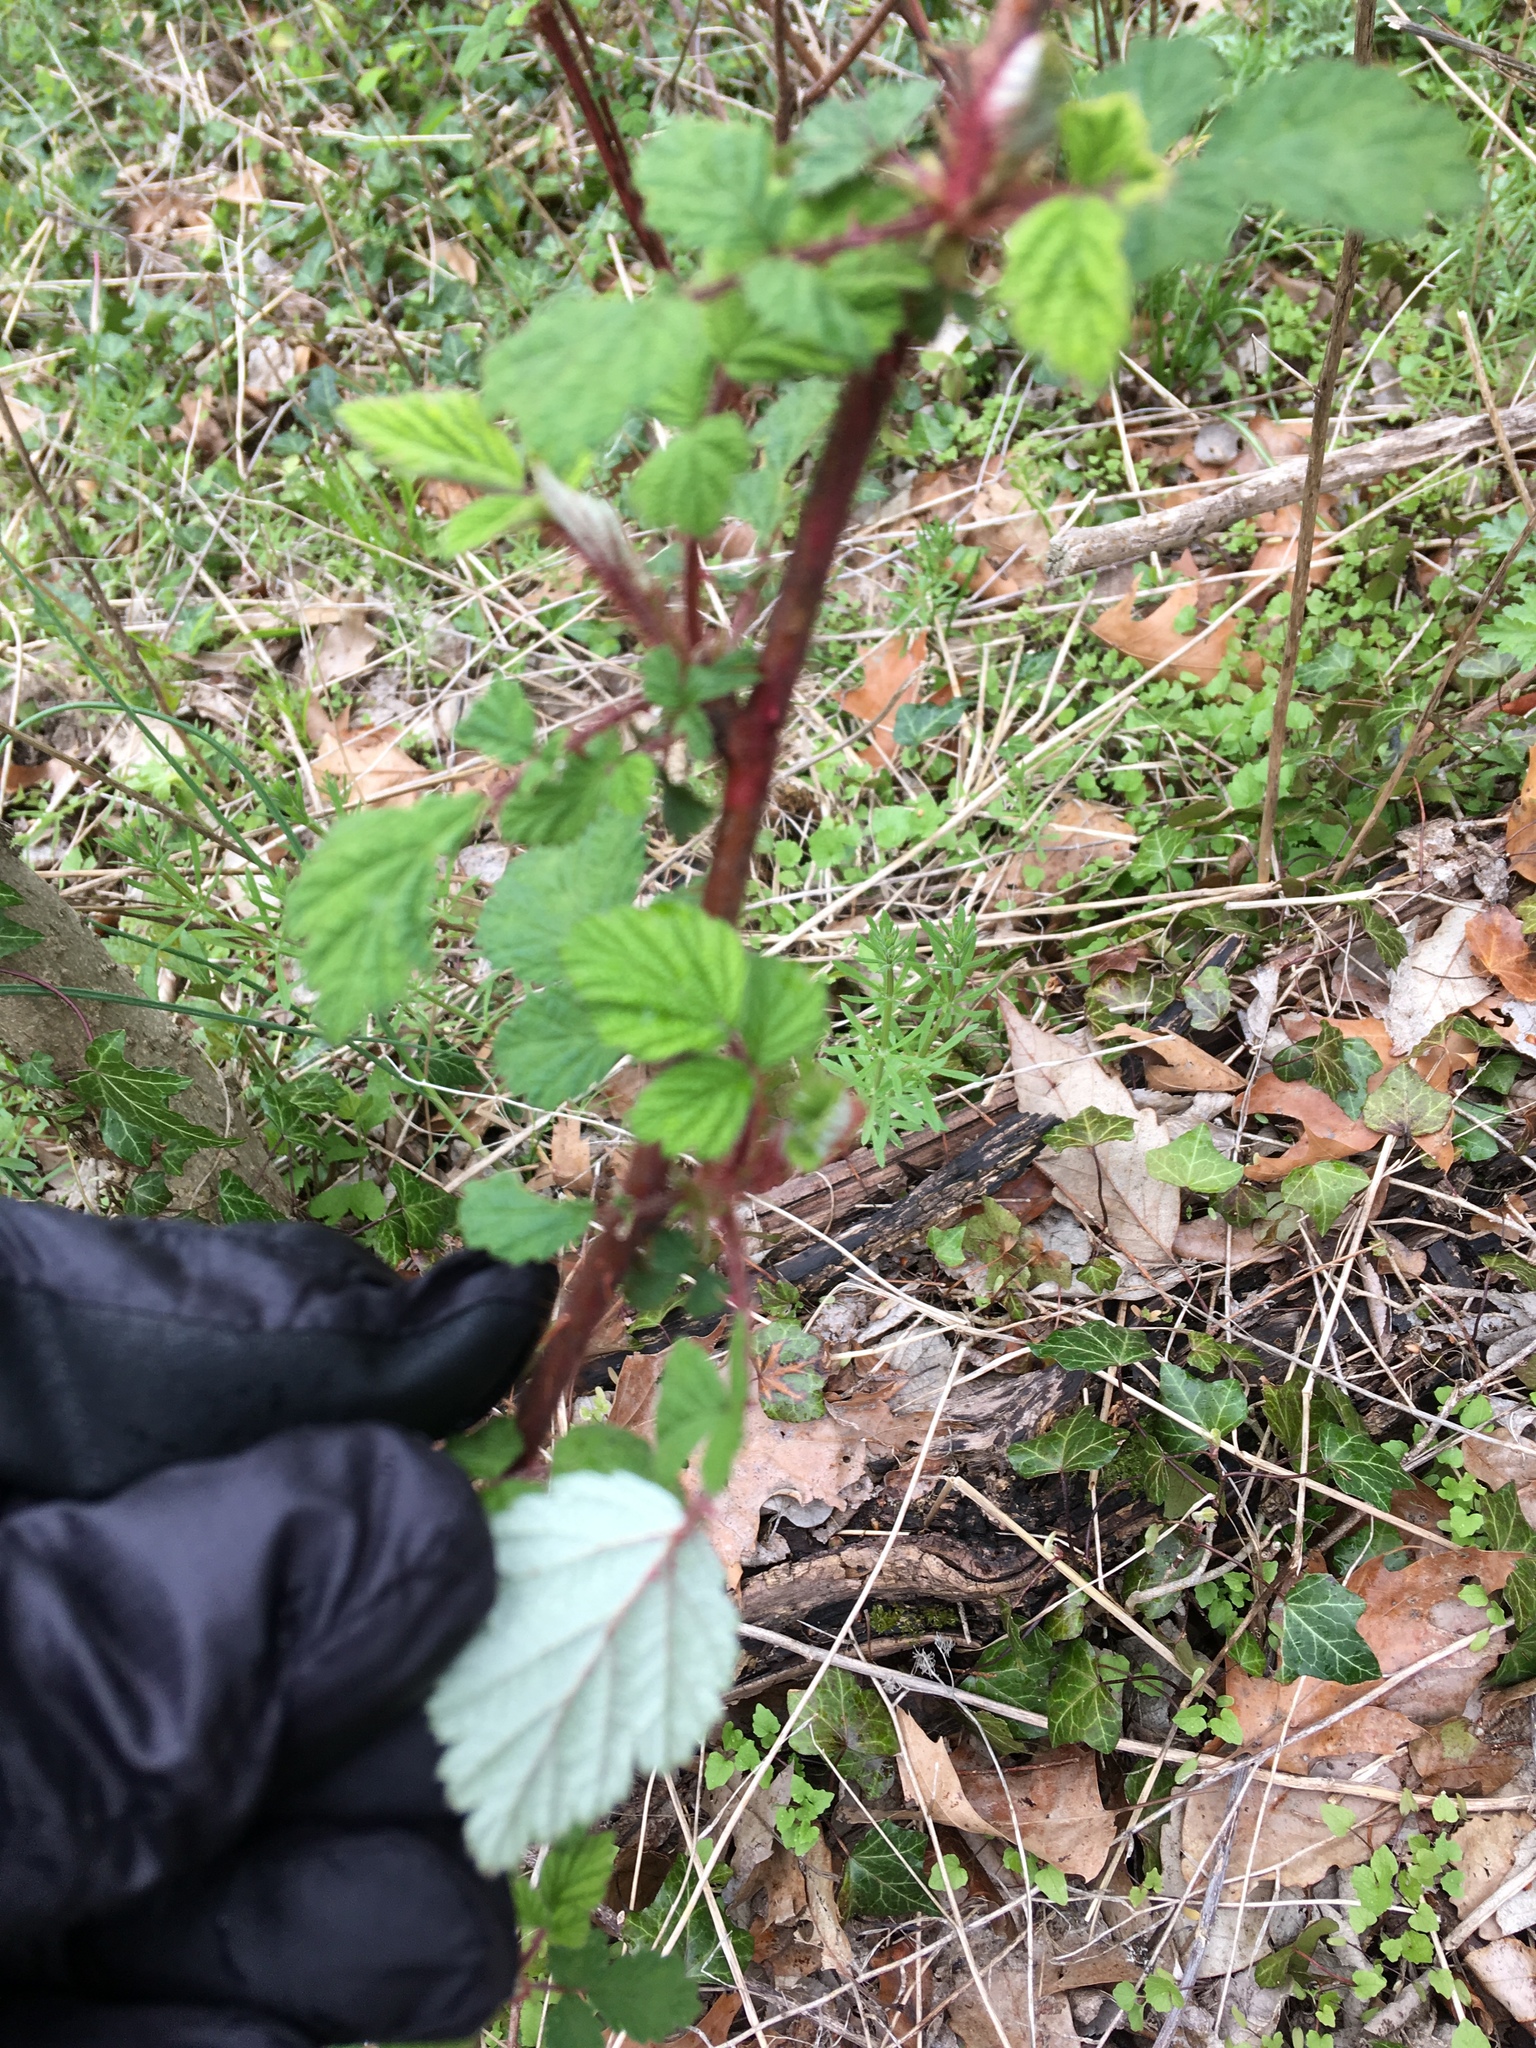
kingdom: Plantae
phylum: Tracheophyta
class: Magnoliopsida
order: Rosales
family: Rosaceae
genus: Rubus
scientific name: Rubus phoenicolasius
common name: Japanese wineberry
